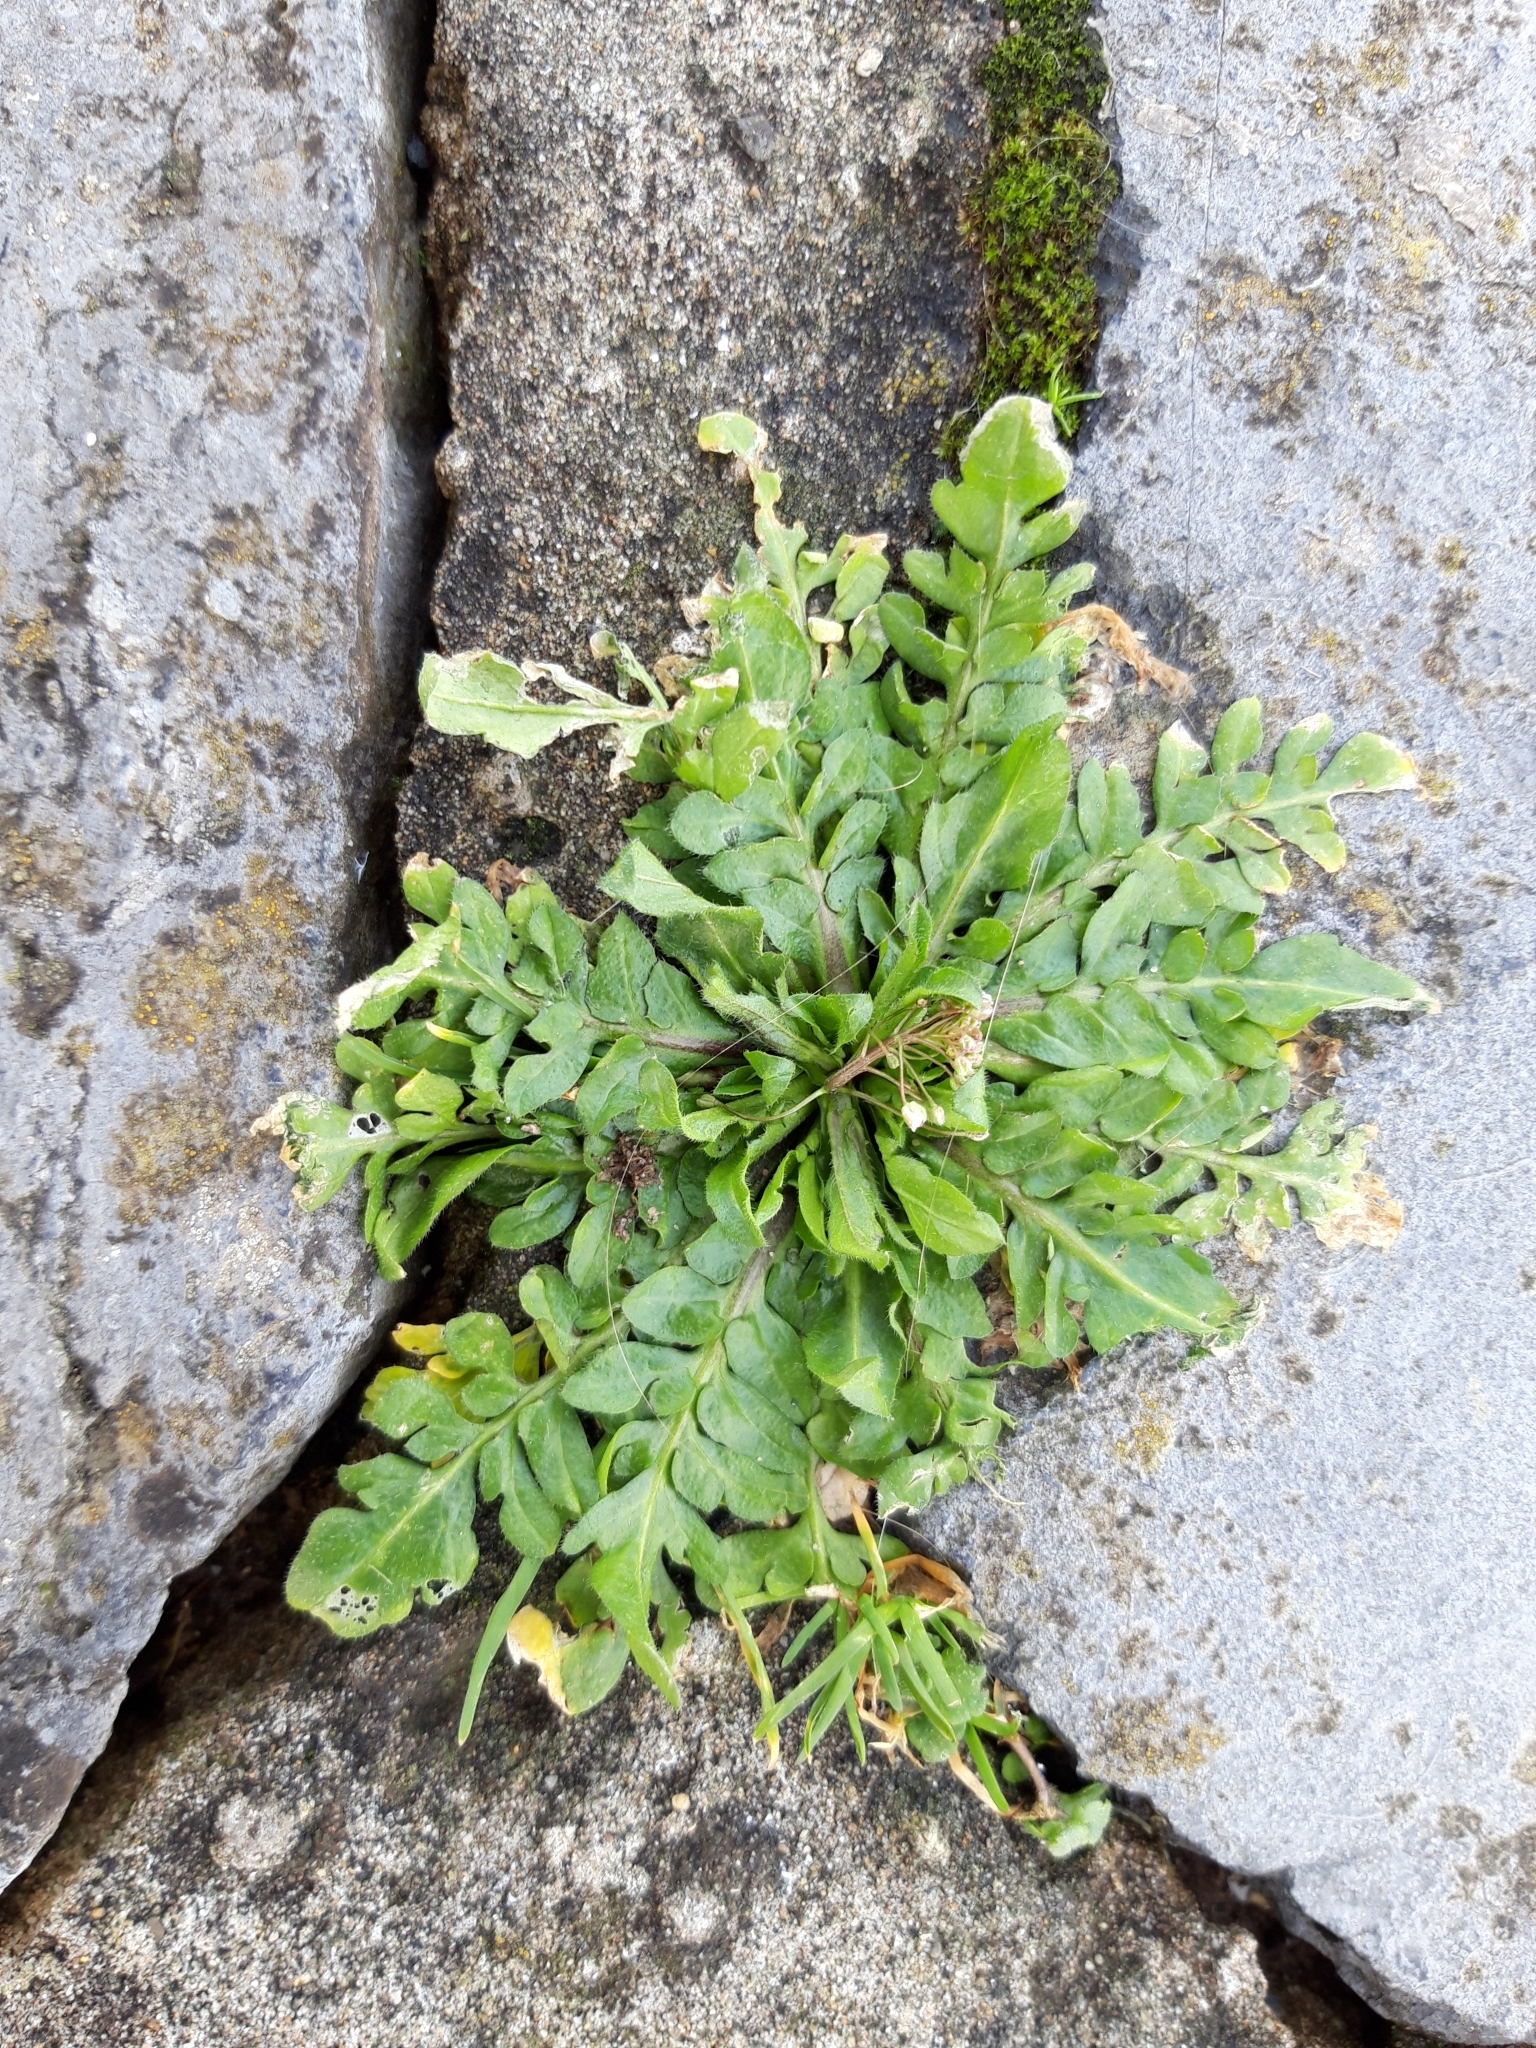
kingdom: Plantae
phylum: Tracheophyta
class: Magnoliopsida
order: Brassicales
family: Brassicaceae
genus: Capsella
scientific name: Capsella bursa-pastoris
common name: Shepherd's purse
